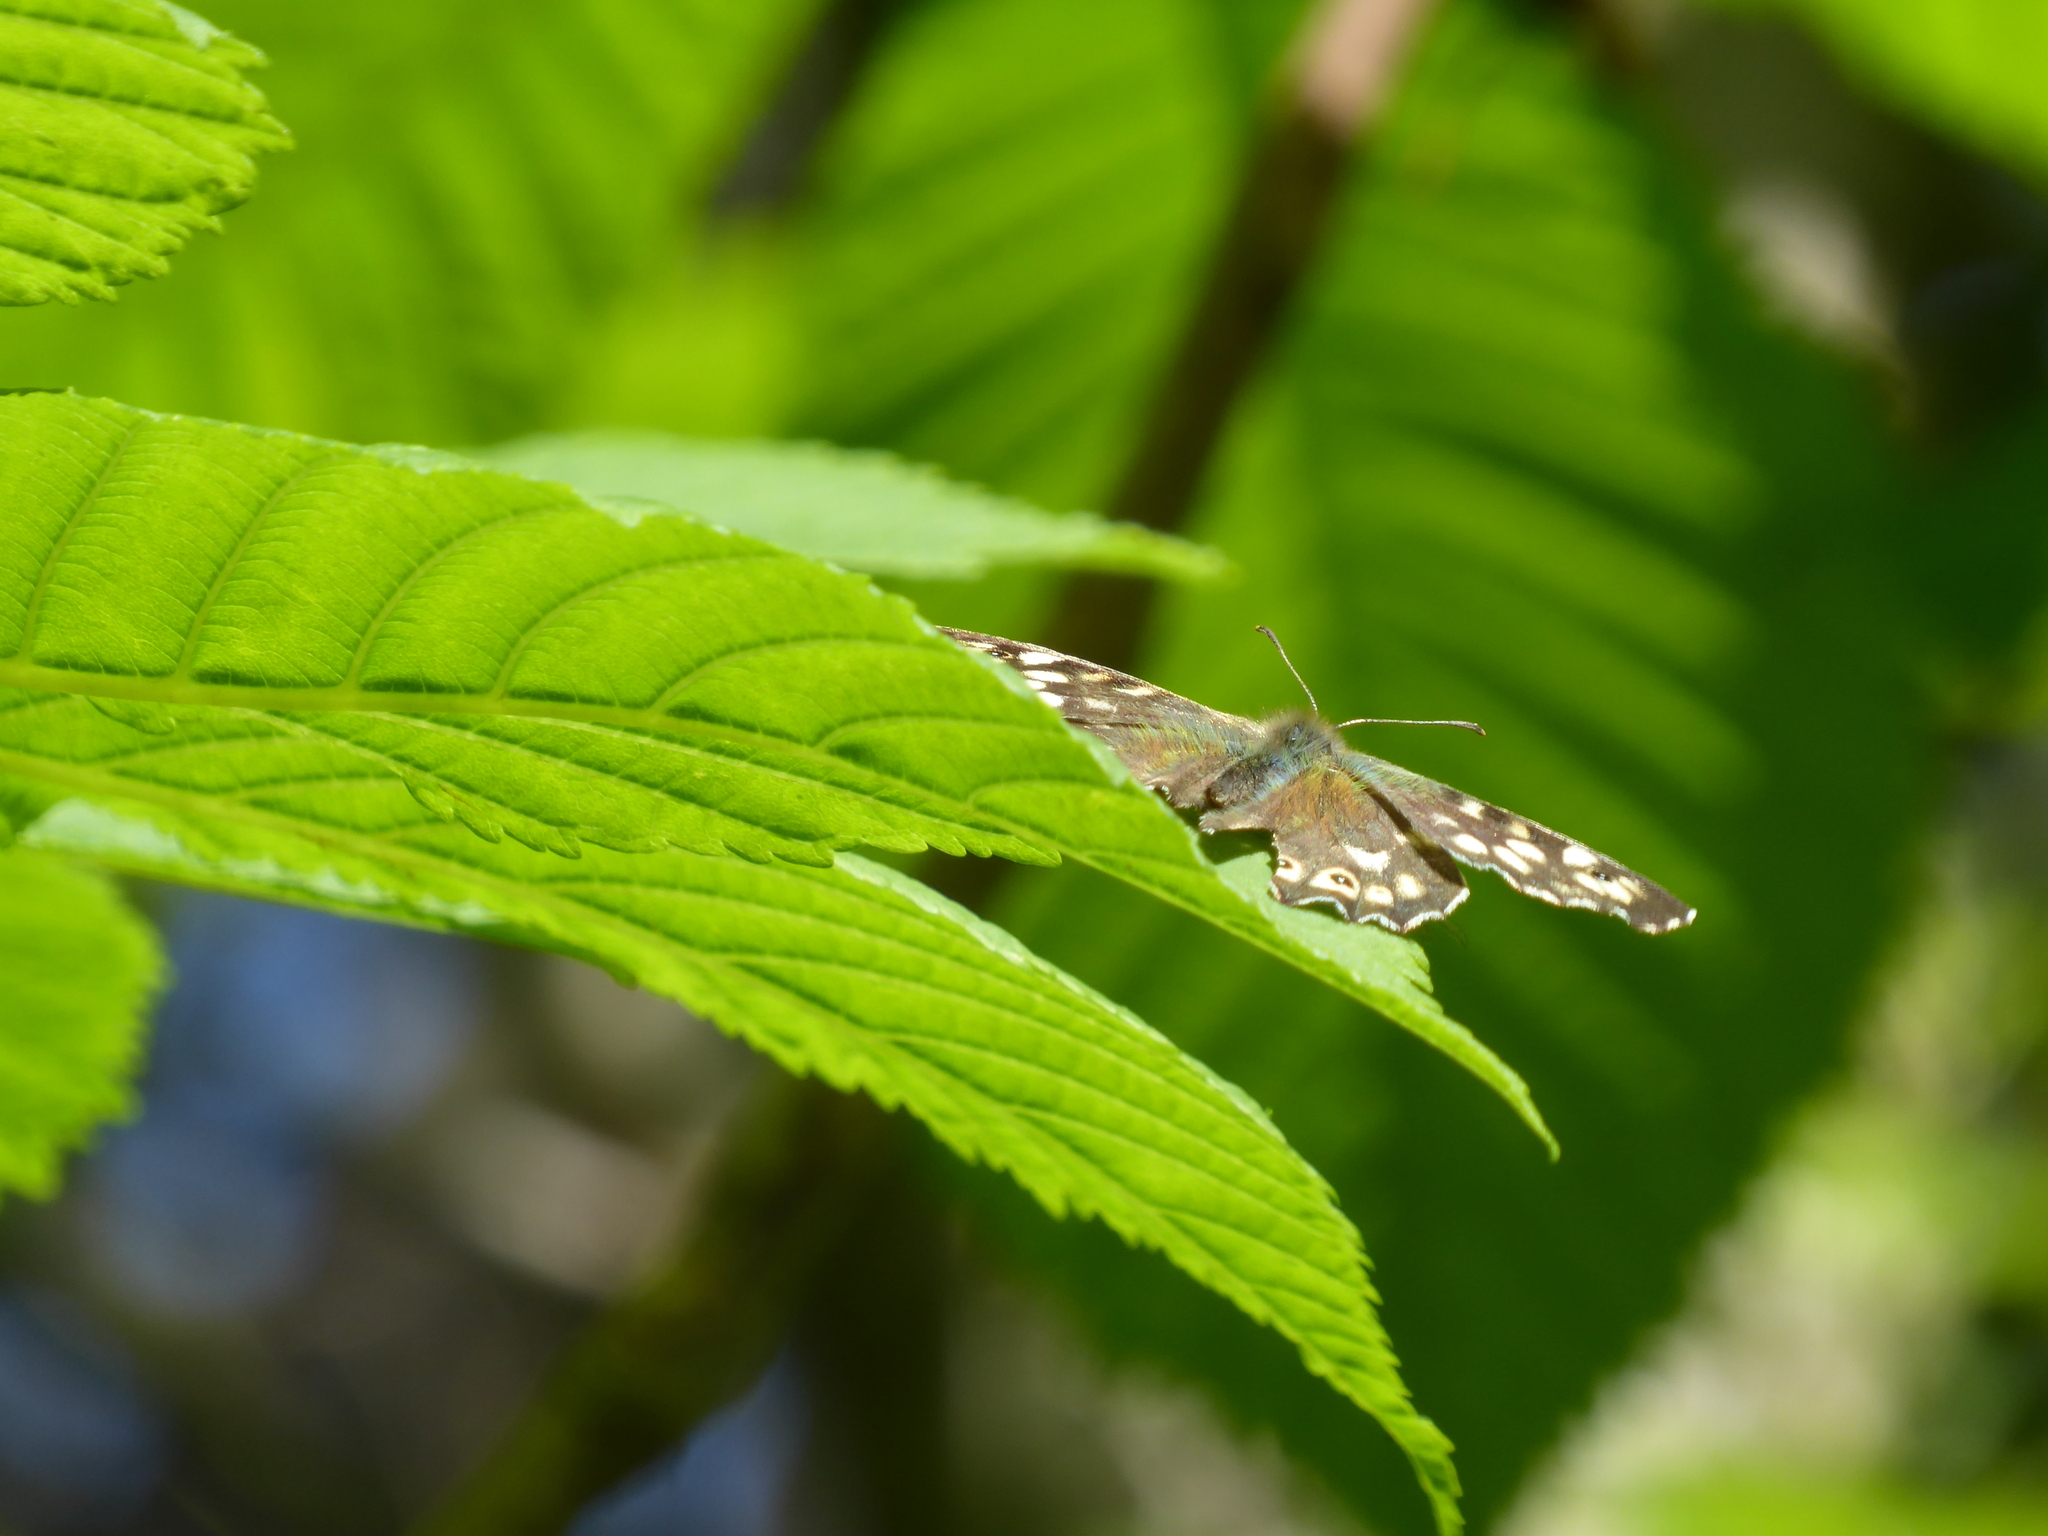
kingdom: Animalia
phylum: Arthropoda
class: Insecta
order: Lepidoptera
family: Nymphalidae
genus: Pararge
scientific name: Pararge aegeria
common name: Speckled wood
